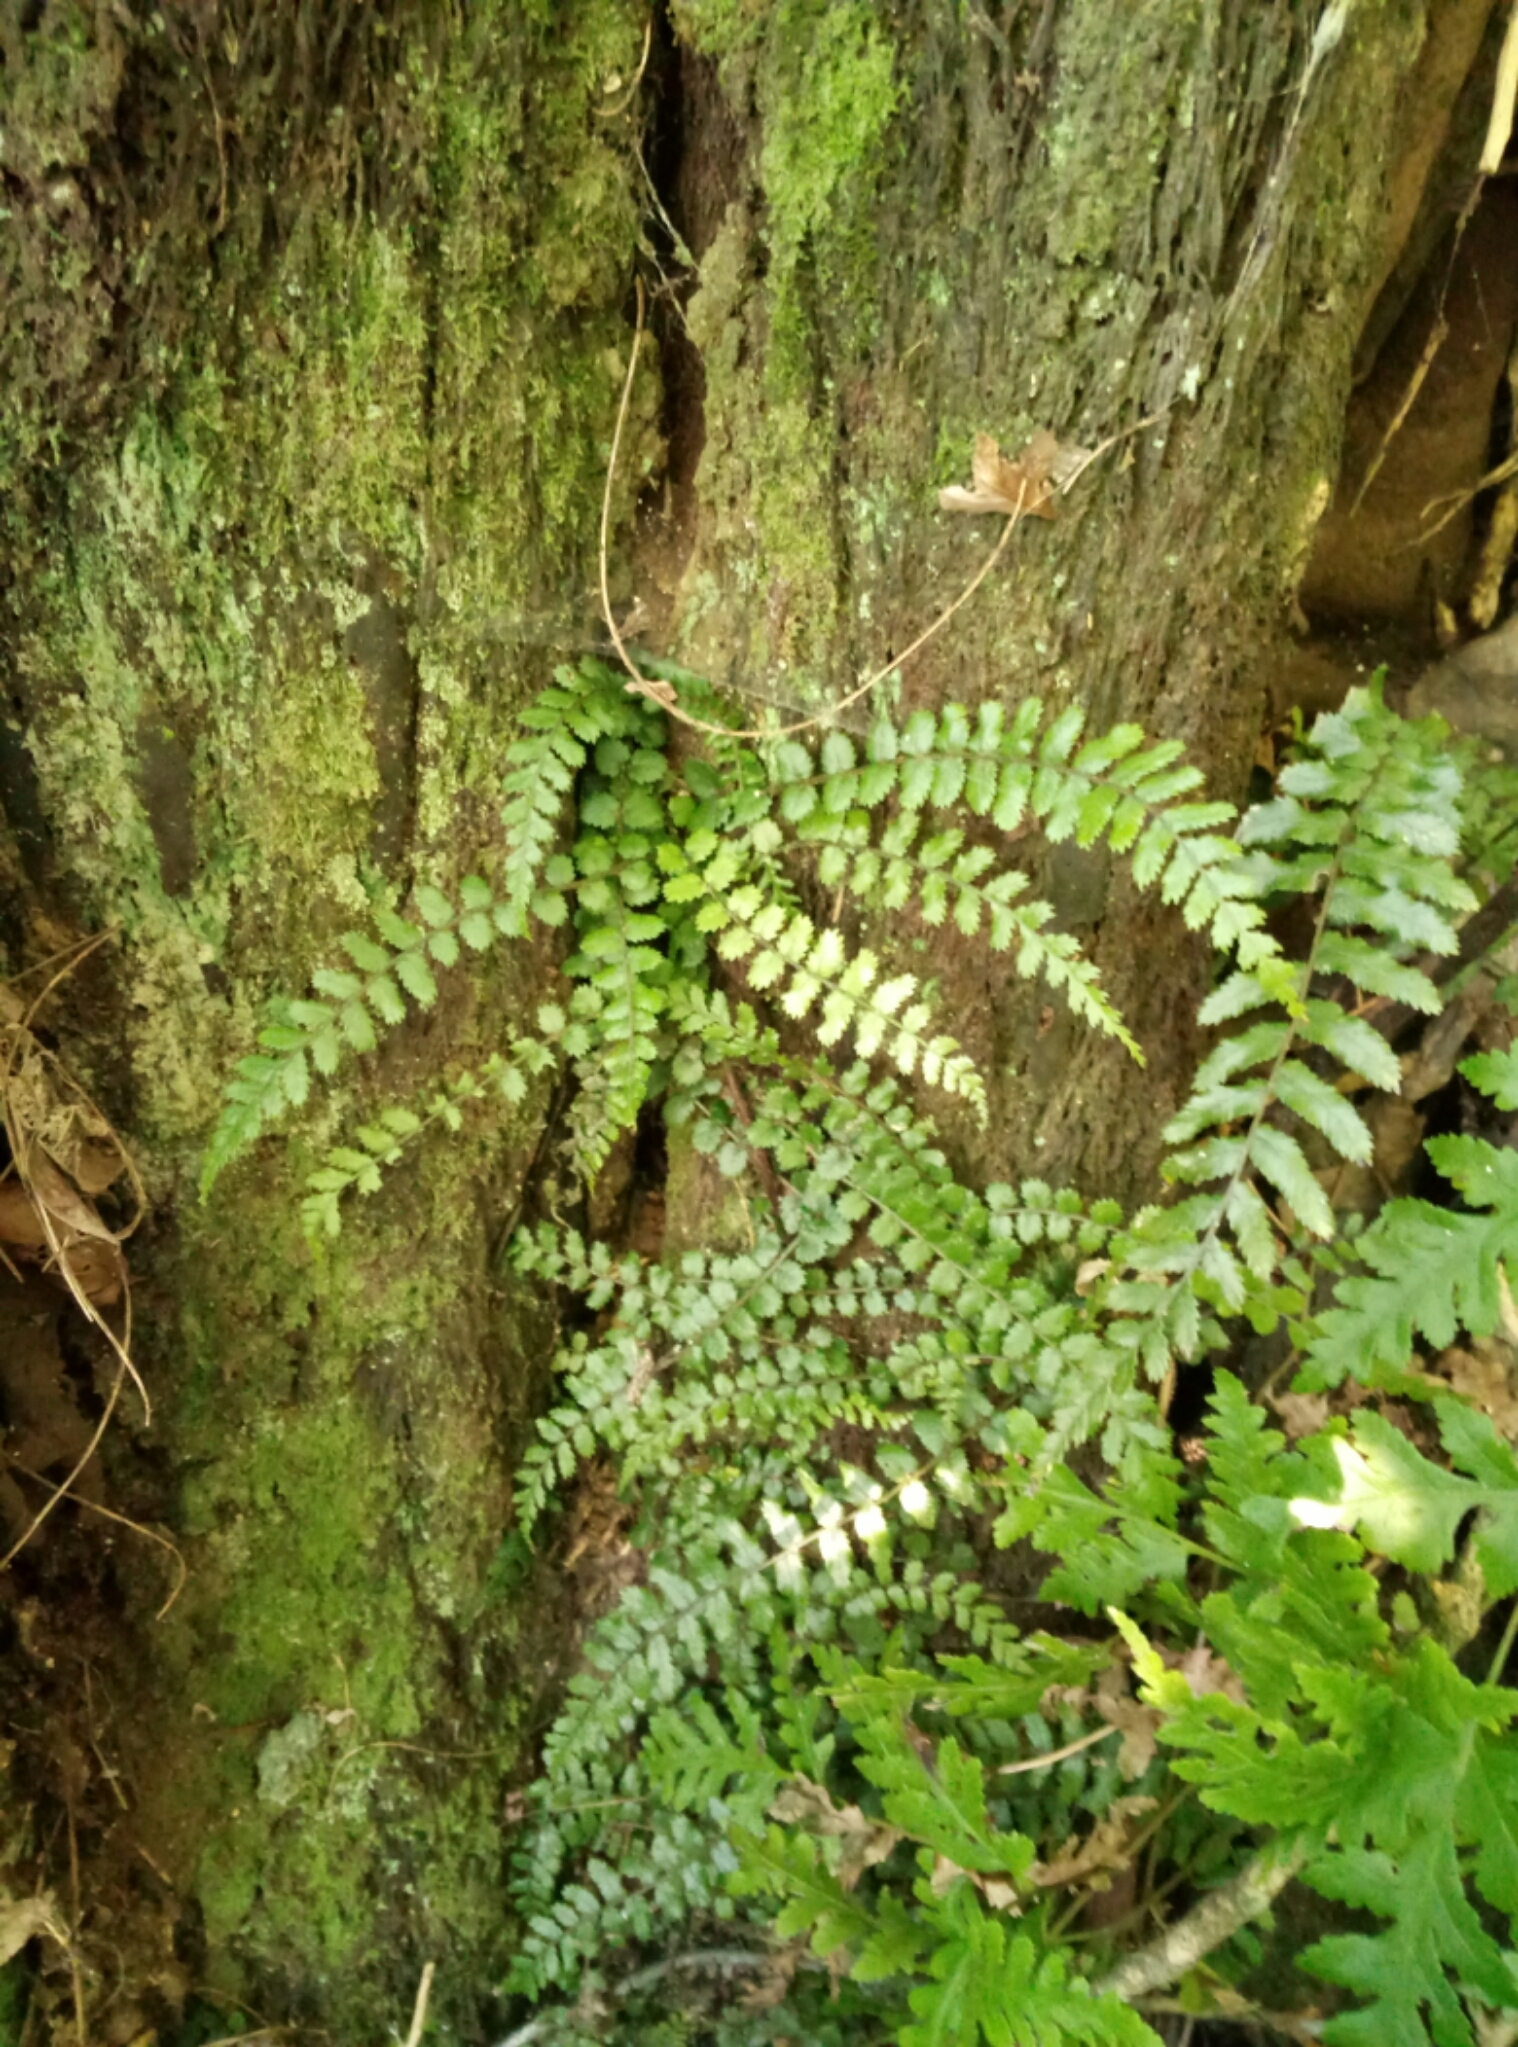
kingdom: Plantae
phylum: Tracheophyta
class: Polypodiopsida
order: Polypodiales
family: Blechnaceae
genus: Icarus
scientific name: Icarus filiformis
